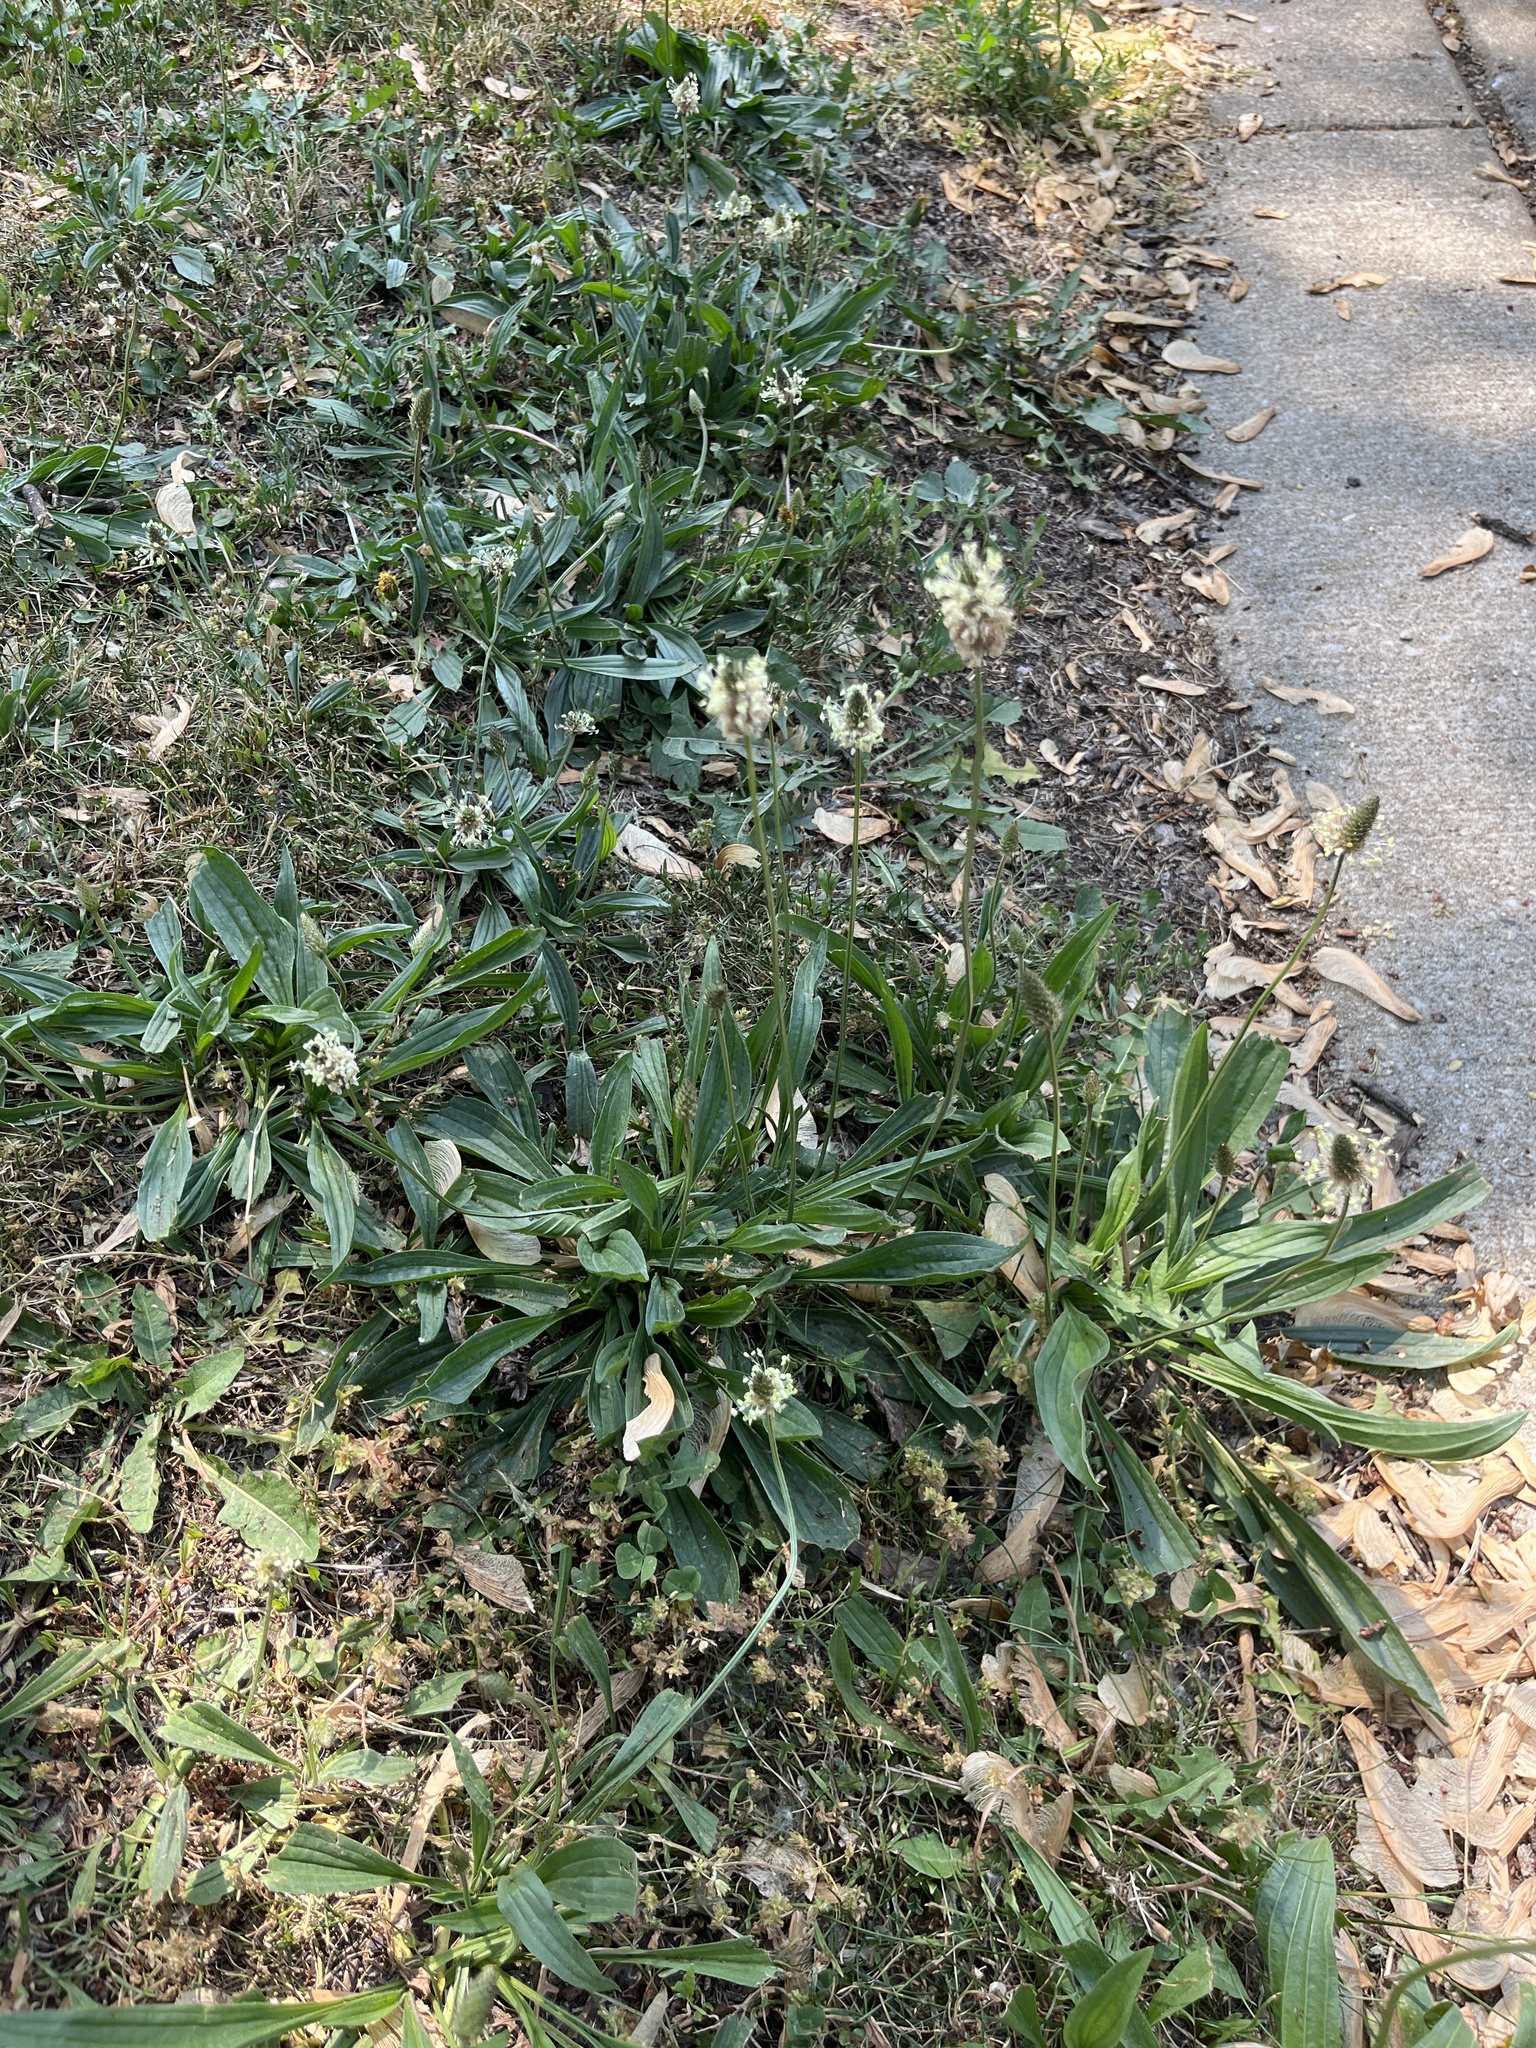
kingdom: Plantae
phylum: Tracheophyta
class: Magnoliopsida
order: Lamiales
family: Plantaginaceae
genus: Plantago
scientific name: Plantago lanceolata
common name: Ribwort plantain
